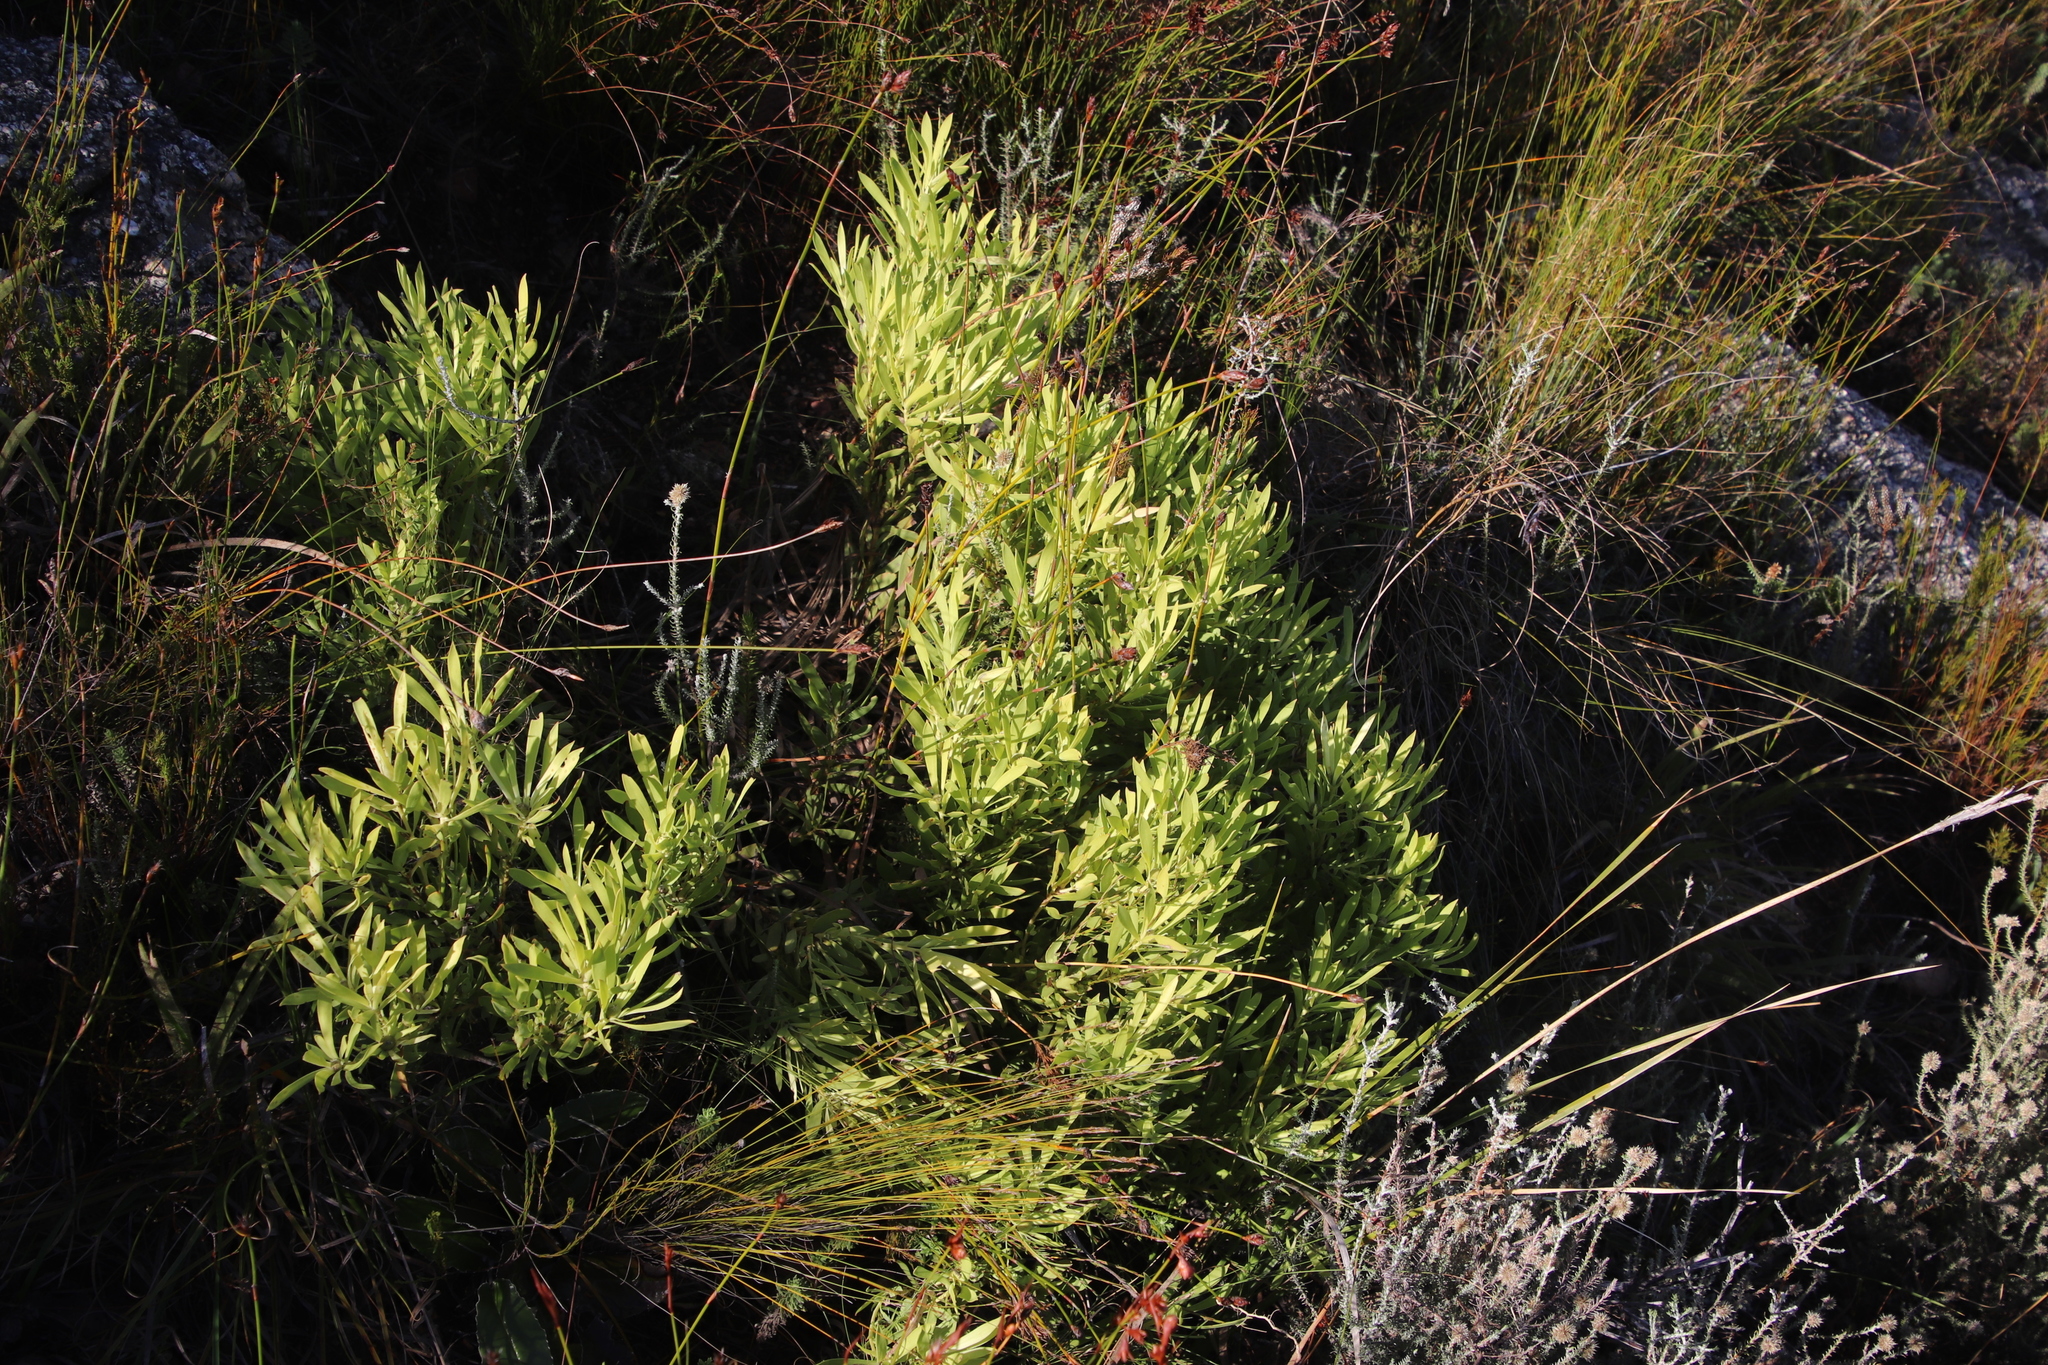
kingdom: Plantae
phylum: Tracheophyta
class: Magnoliopsida
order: Proteales
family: Proteaceae
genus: Leucadendron
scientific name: Leucadendron salignum
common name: Common sunshine conebush
